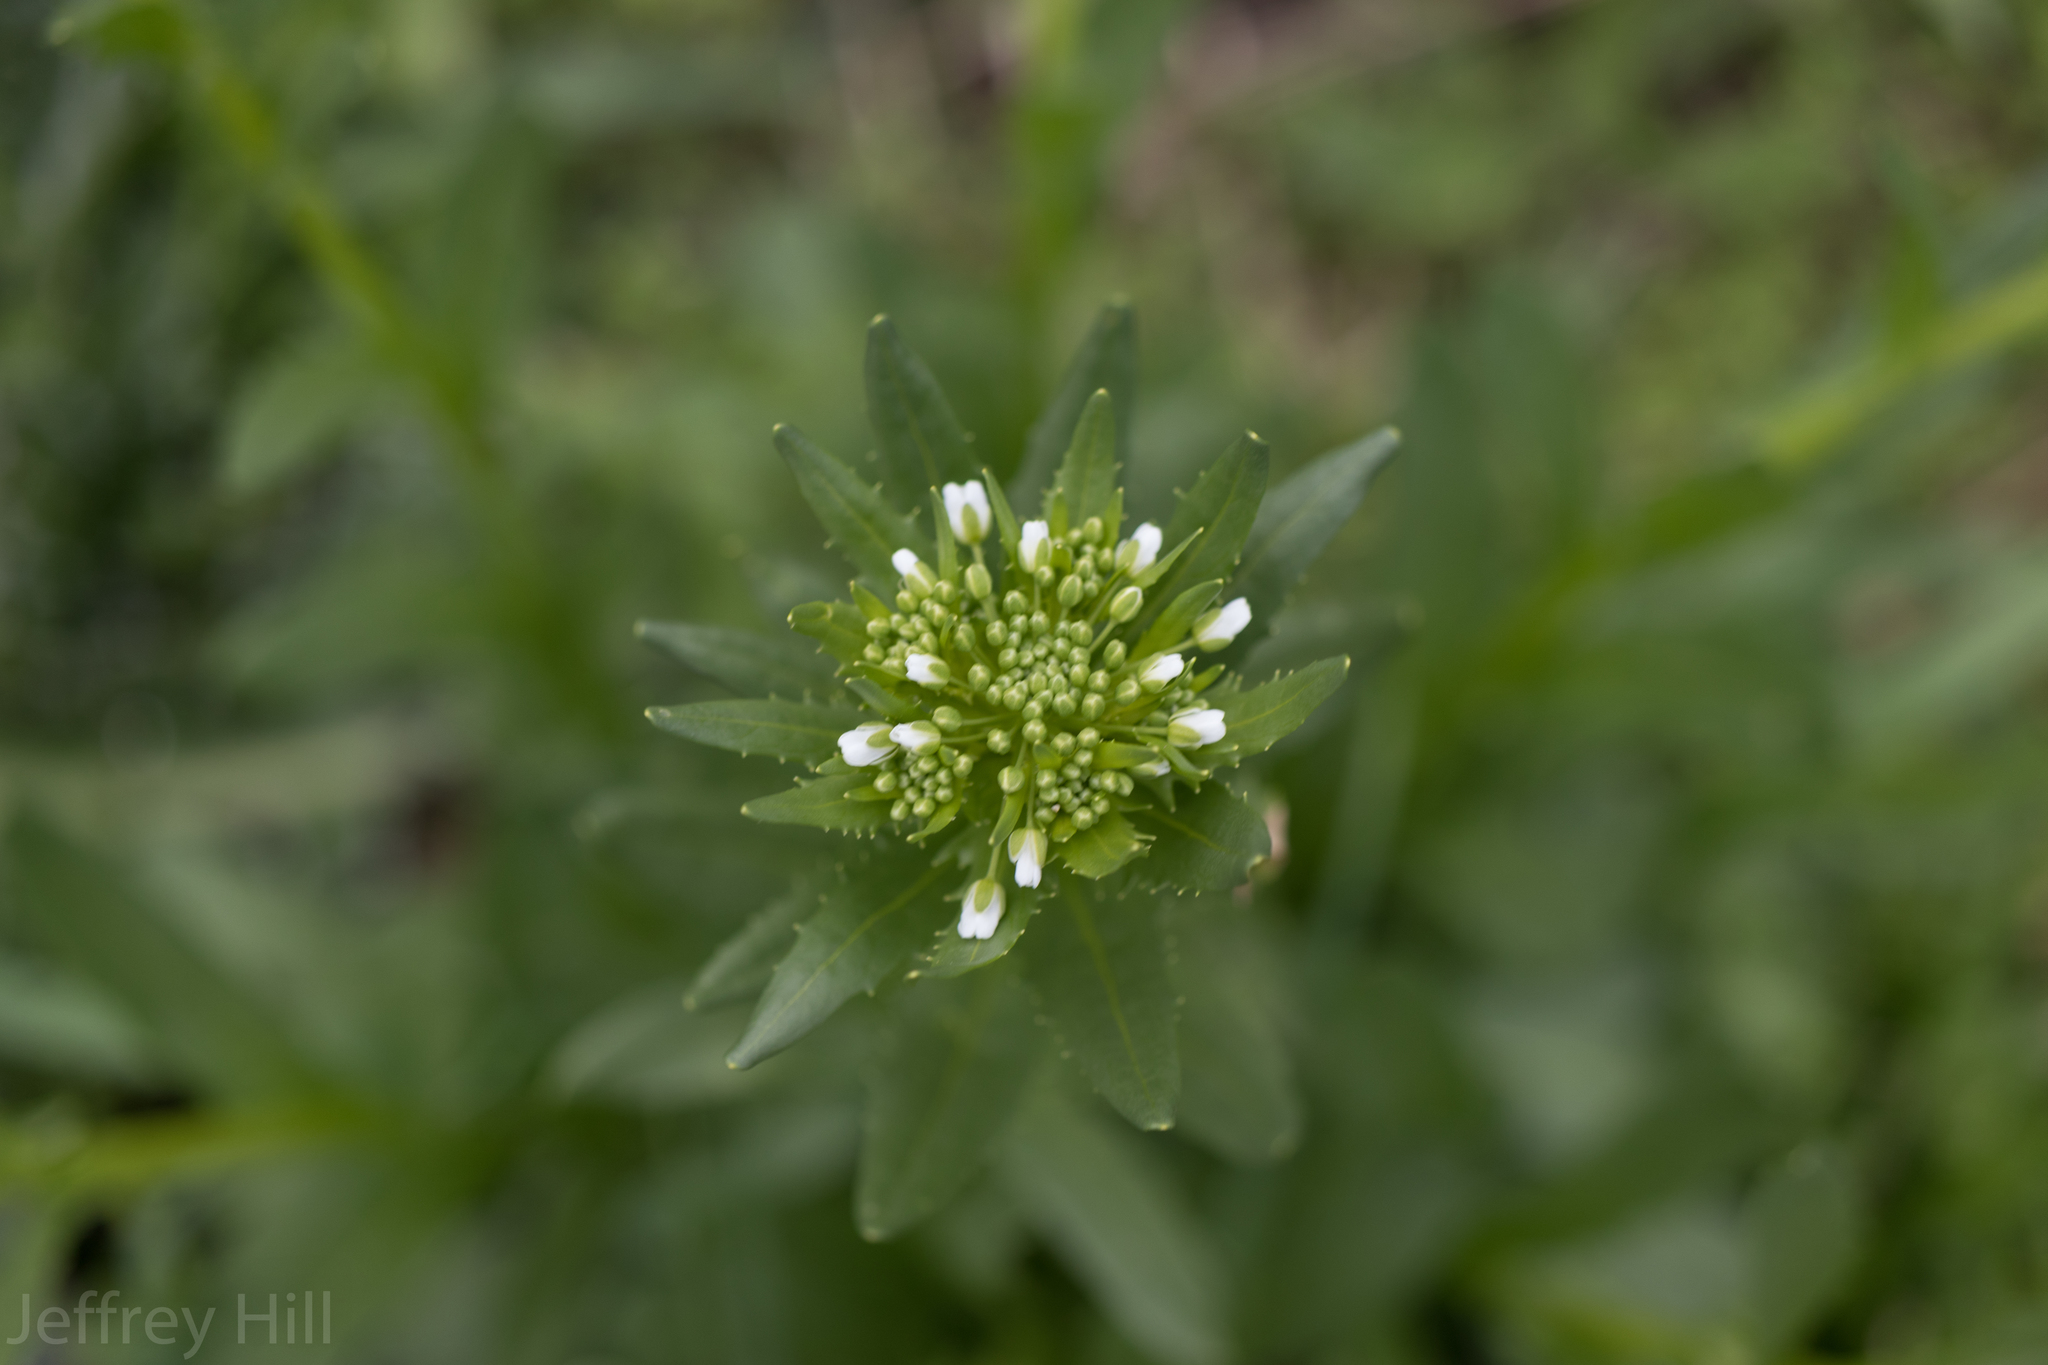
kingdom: Plantae
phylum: Tracheophyta
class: Magnoliopsida
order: Brassicales
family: Brassicaceae
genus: Thlaspi
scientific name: Thlaspi arvense
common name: Field pennycress
